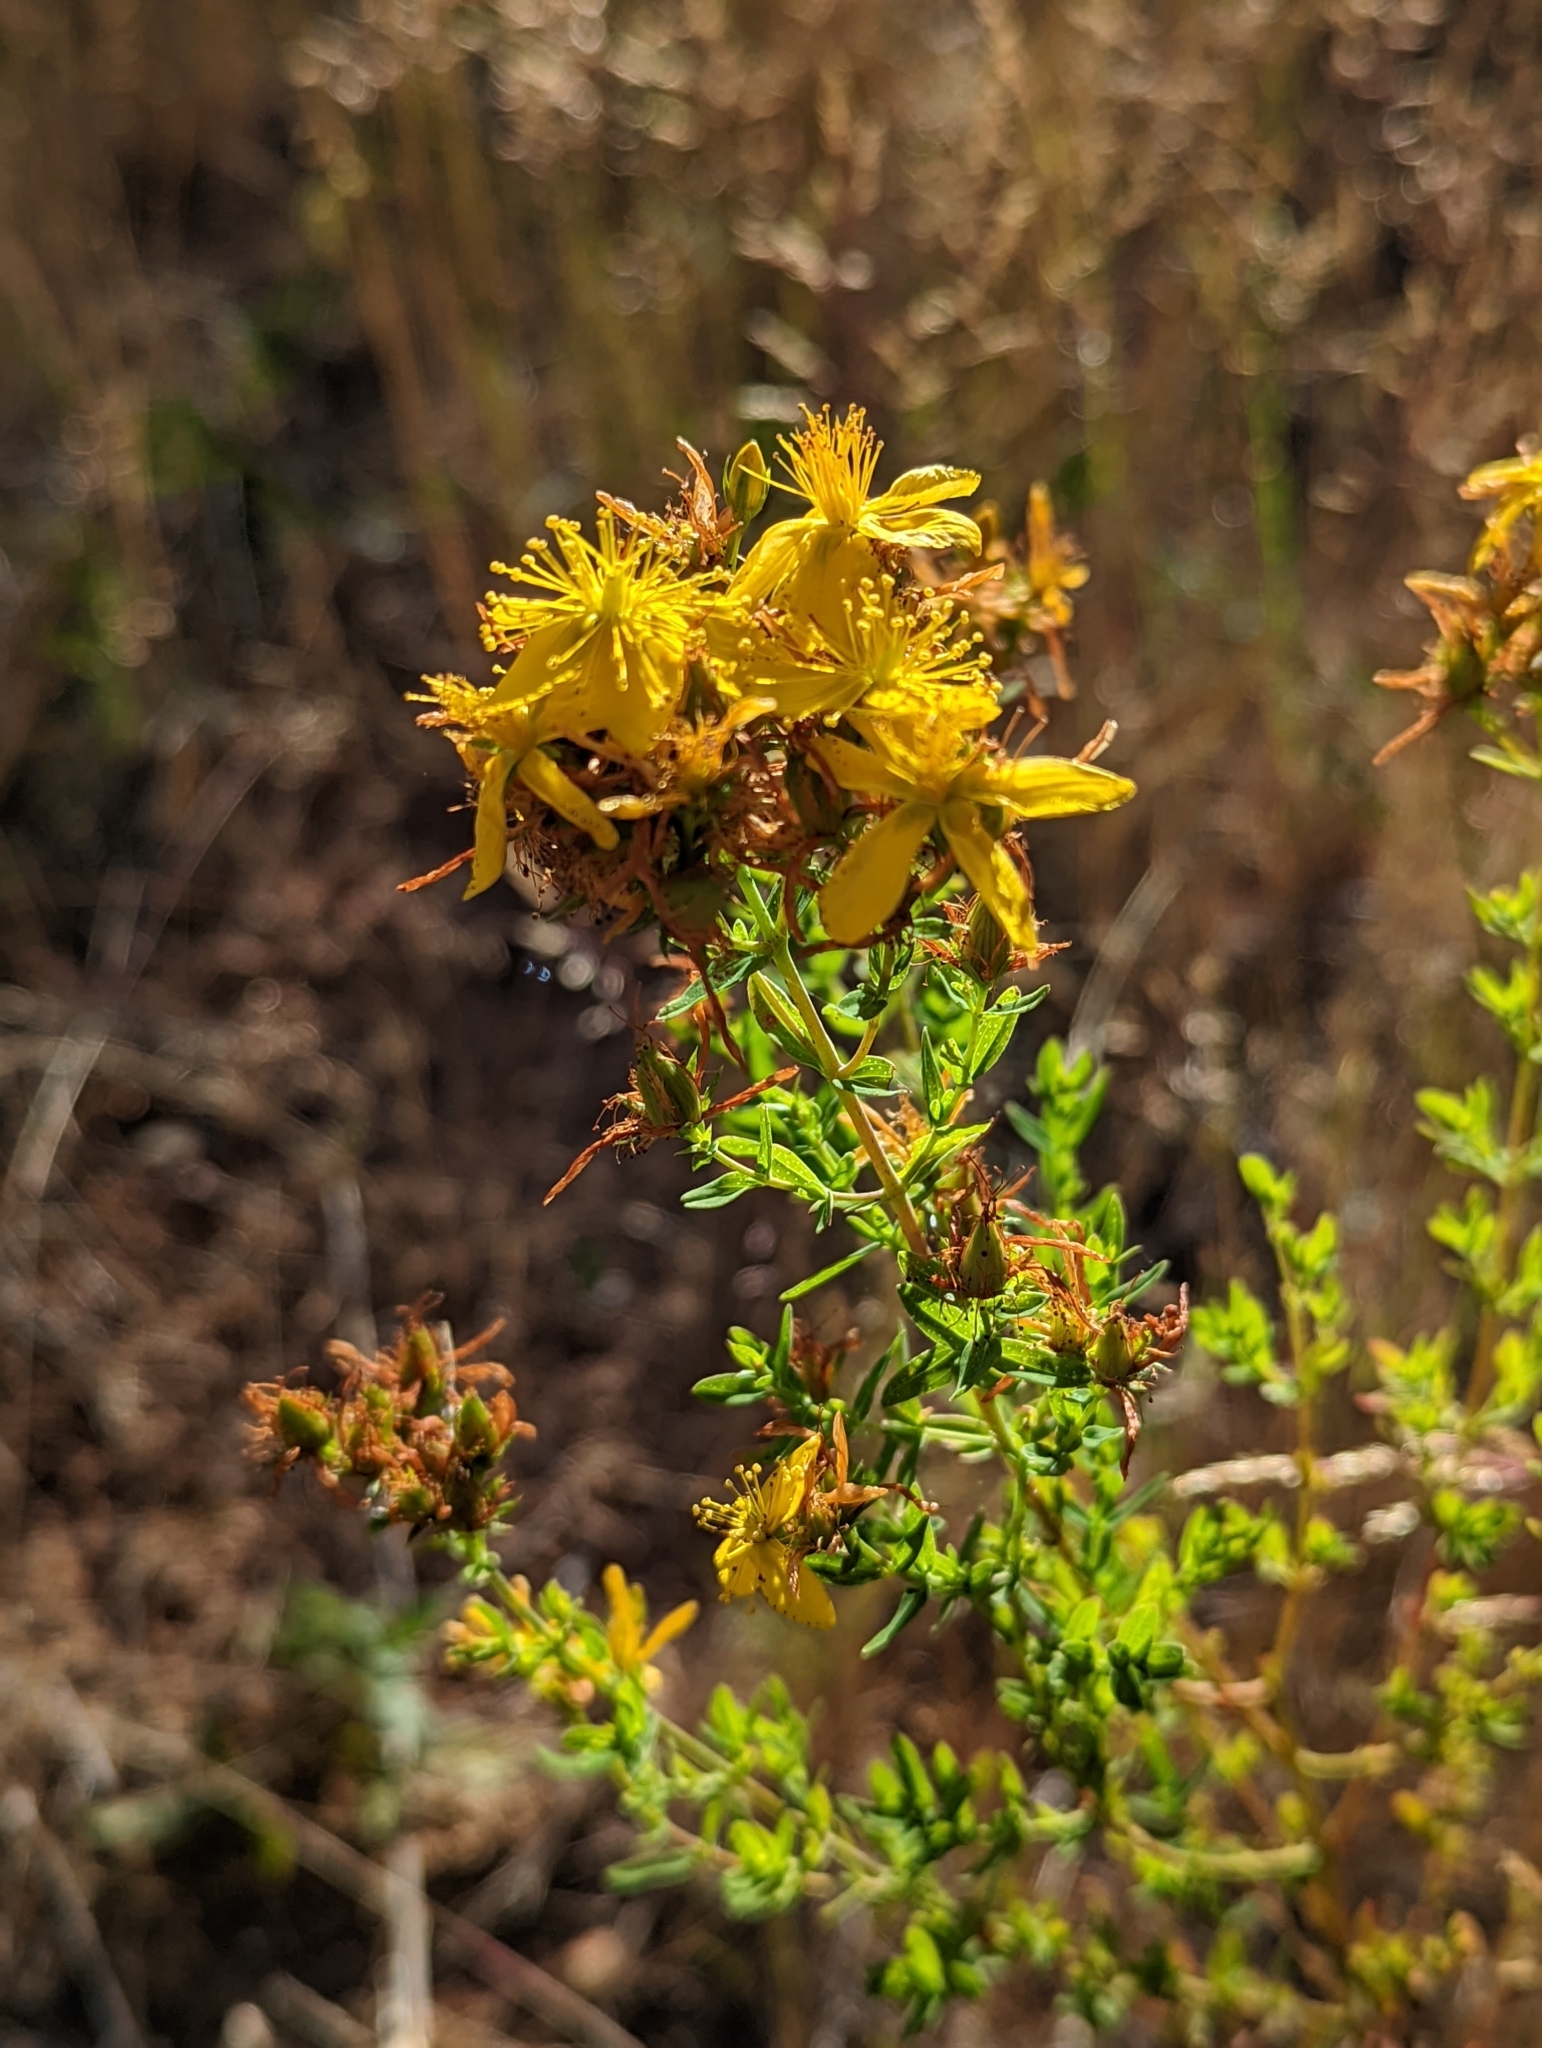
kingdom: Plantae
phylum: Tracheophyta
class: Magnoliopsida
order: Malpighiales
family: Hypericaceae
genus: Hypericum
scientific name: Hypericum perforatum
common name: Common st. johnswort
